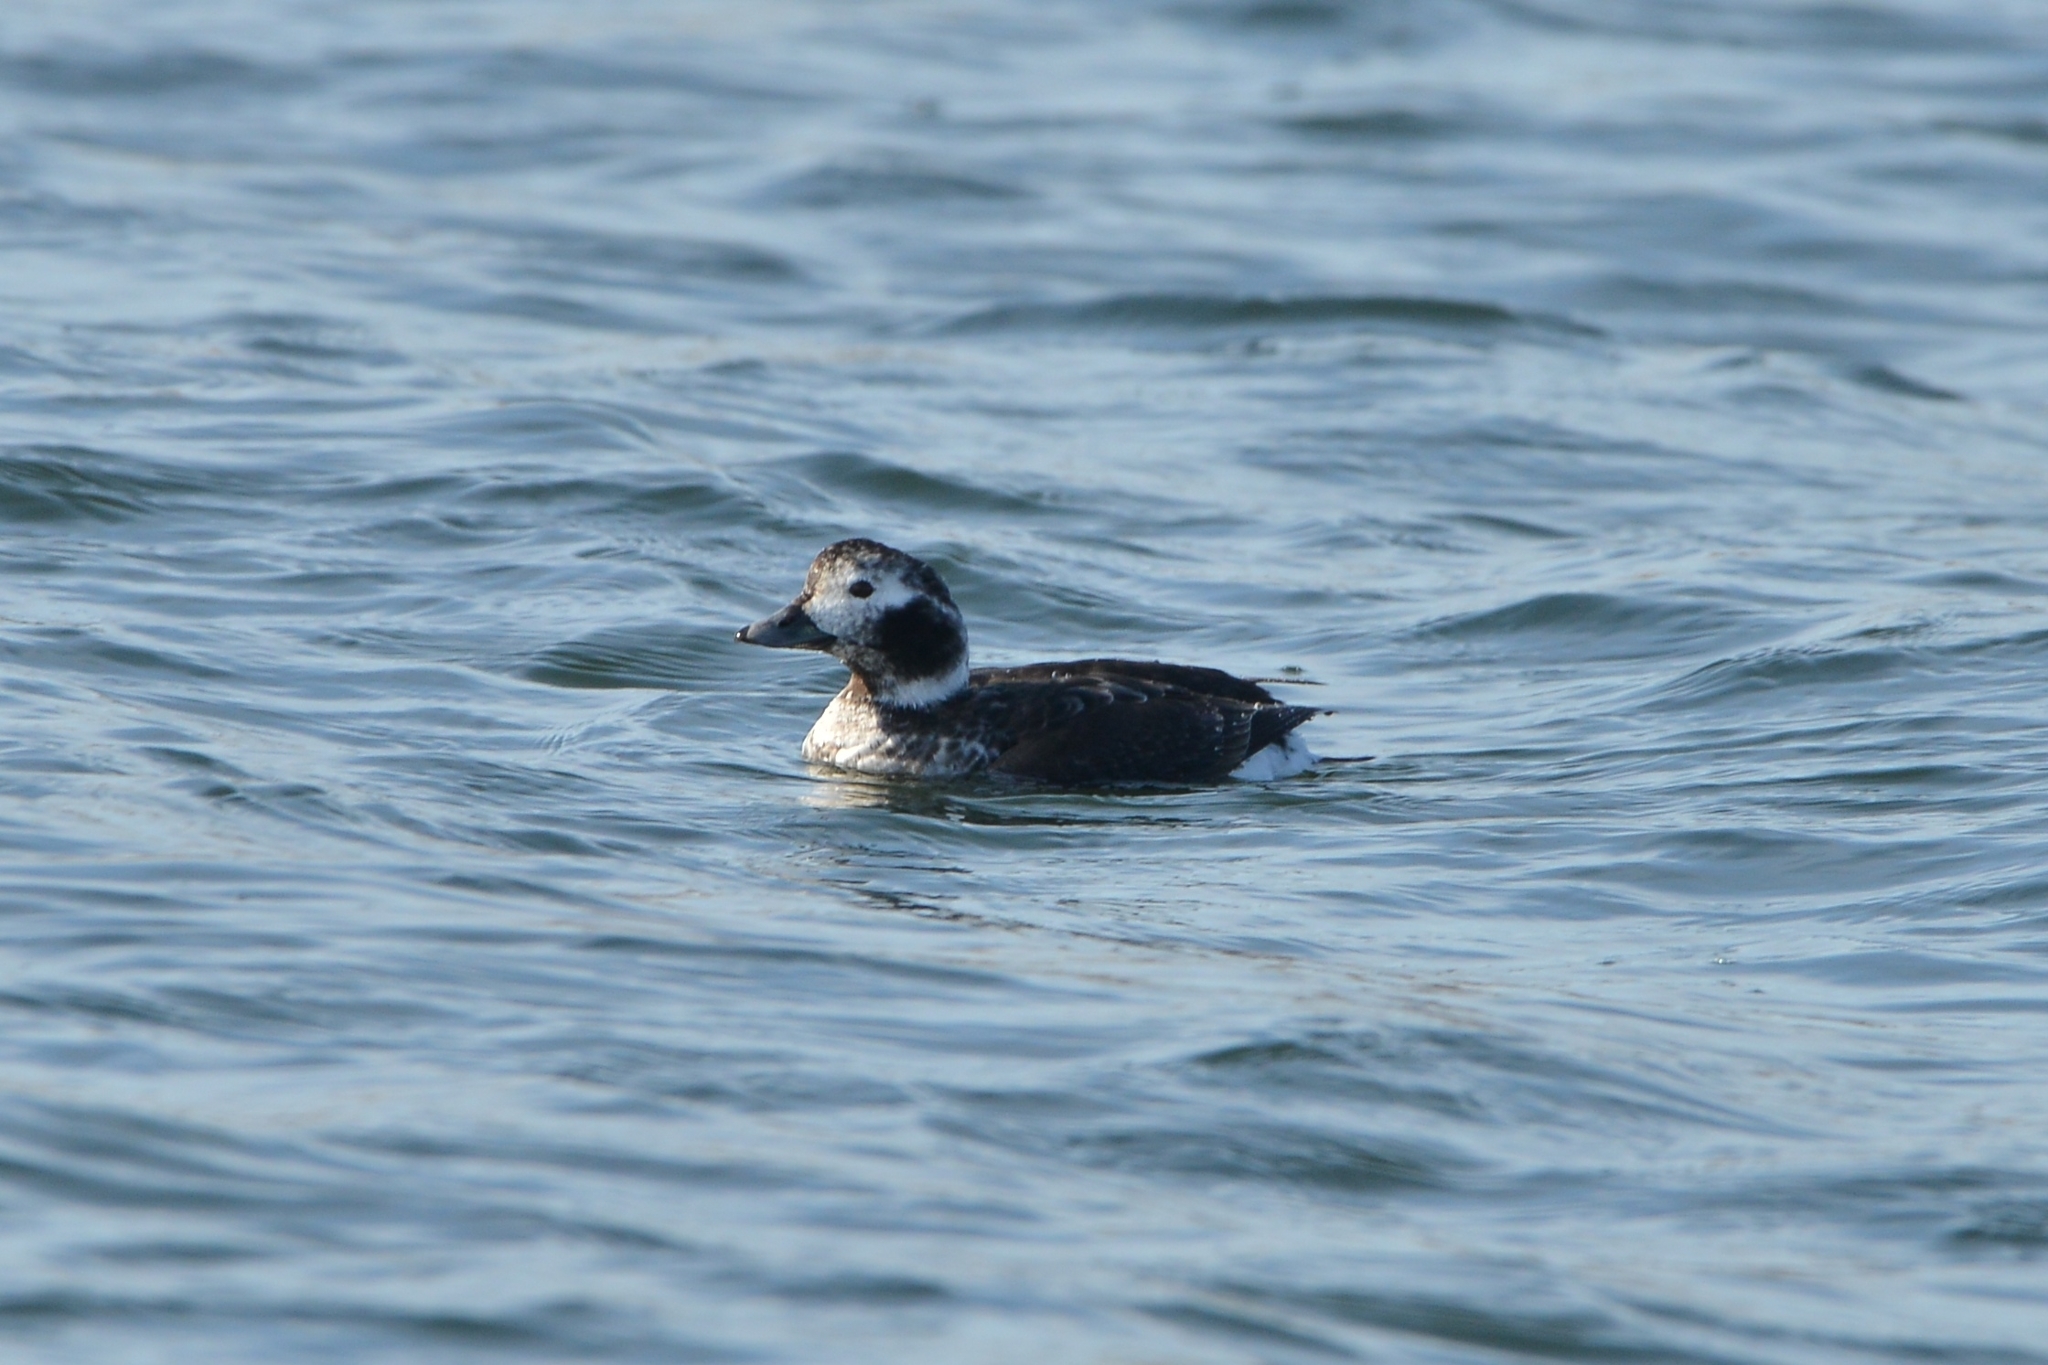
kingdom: Animalia
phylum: Chordata
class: Aves
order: Anseriformes
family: Anatidae
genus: Clangula
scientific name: Clangula hyemalis
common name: Long-tailed duck
